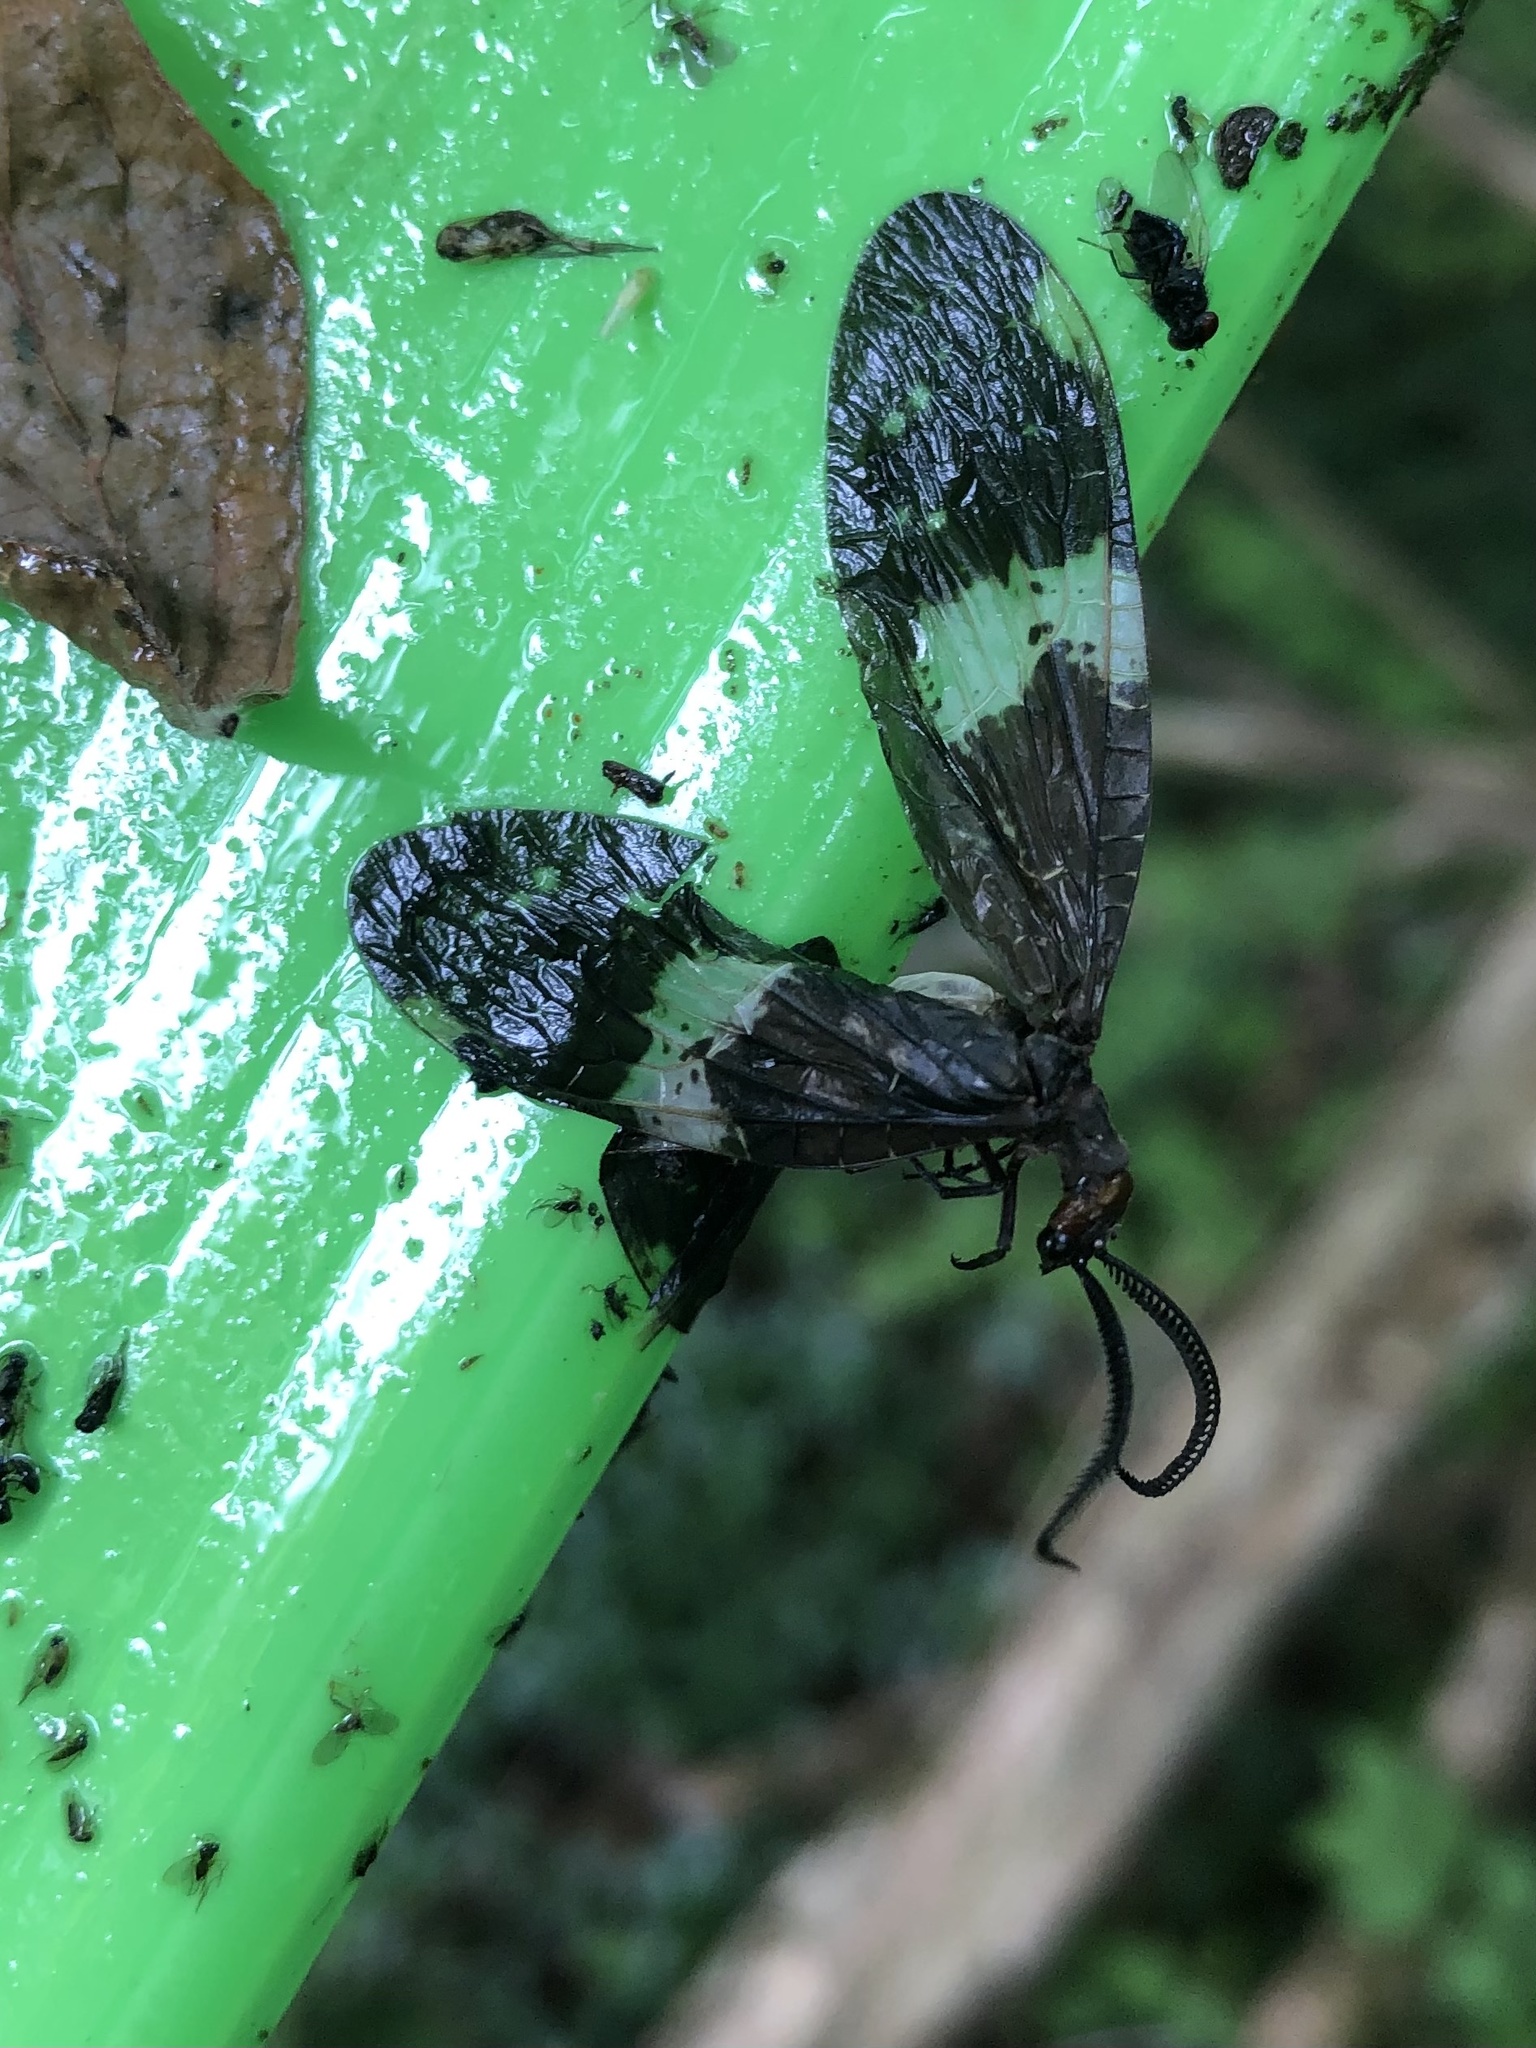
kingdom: Animalia
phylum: Arthropoda
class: Insecta
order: Megaloptera
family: Corydalidae
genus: Nigronia
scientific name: Nigronia fasciata
